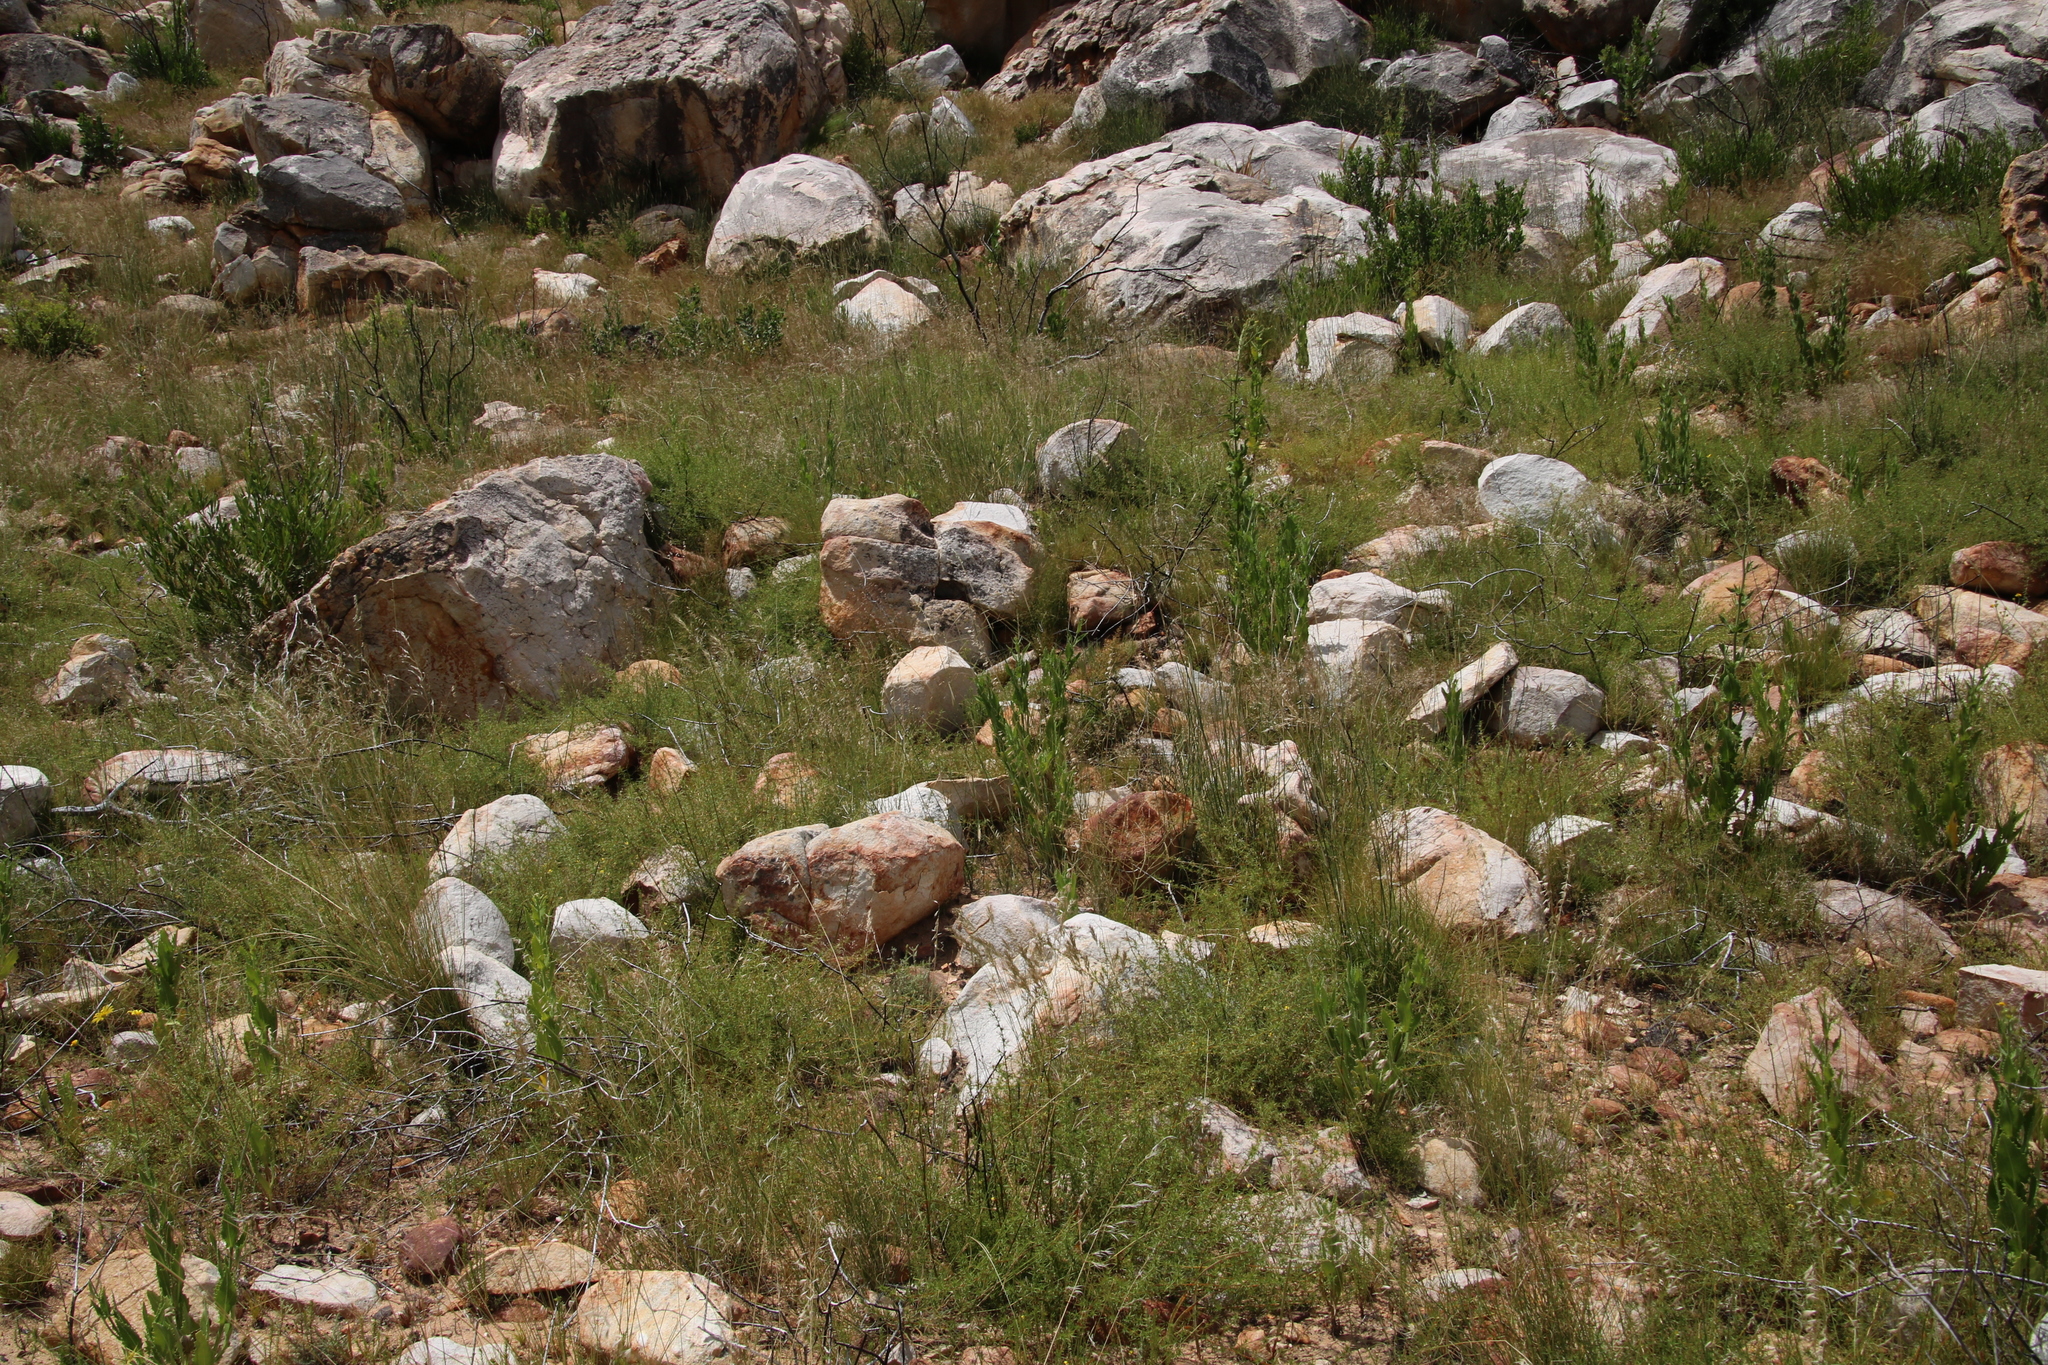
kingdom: Plantae
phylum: Tracheophyta
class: Magnoliopsida
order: Fabales
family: Fabaceae
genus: Aspalathus
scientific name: Aspalathus spinosissima
